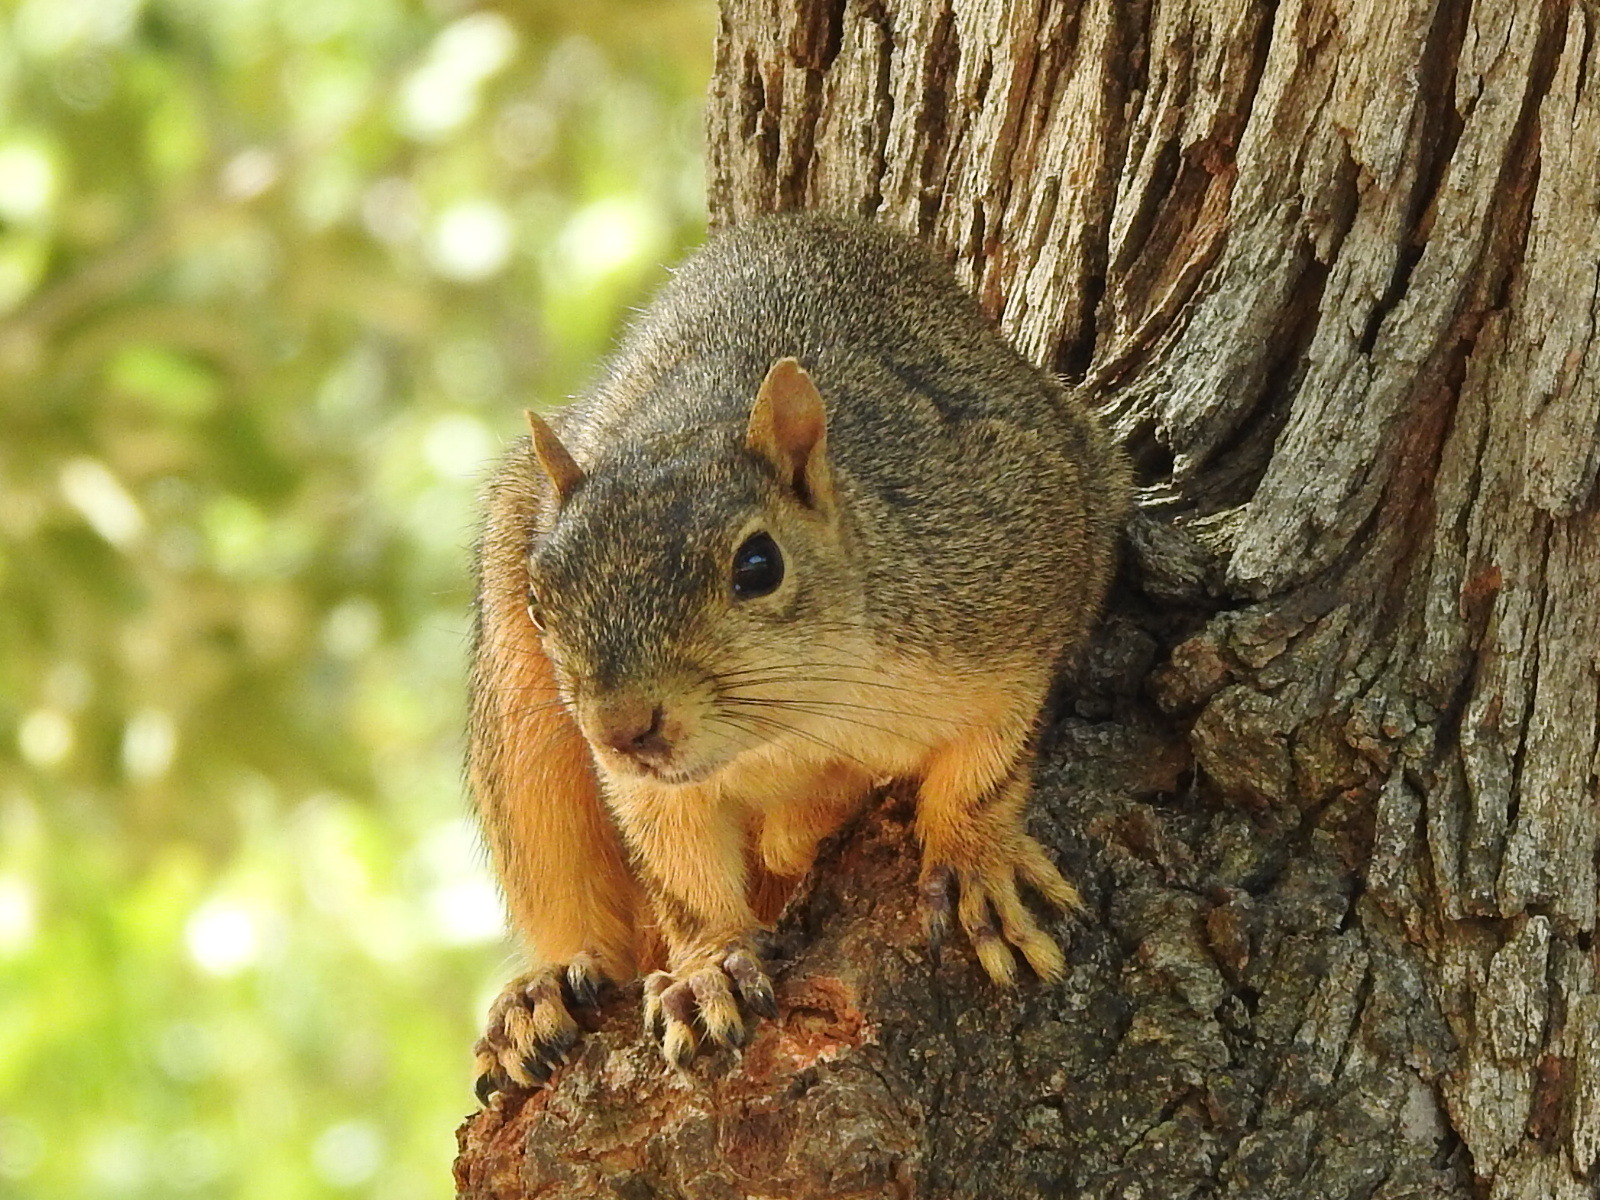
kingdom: Animalia
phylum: Chordata
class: Mammalia
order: Rodentia
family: Sciuridae
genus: Sciurus
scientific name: Sciurus niger
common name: Fox squirrel
